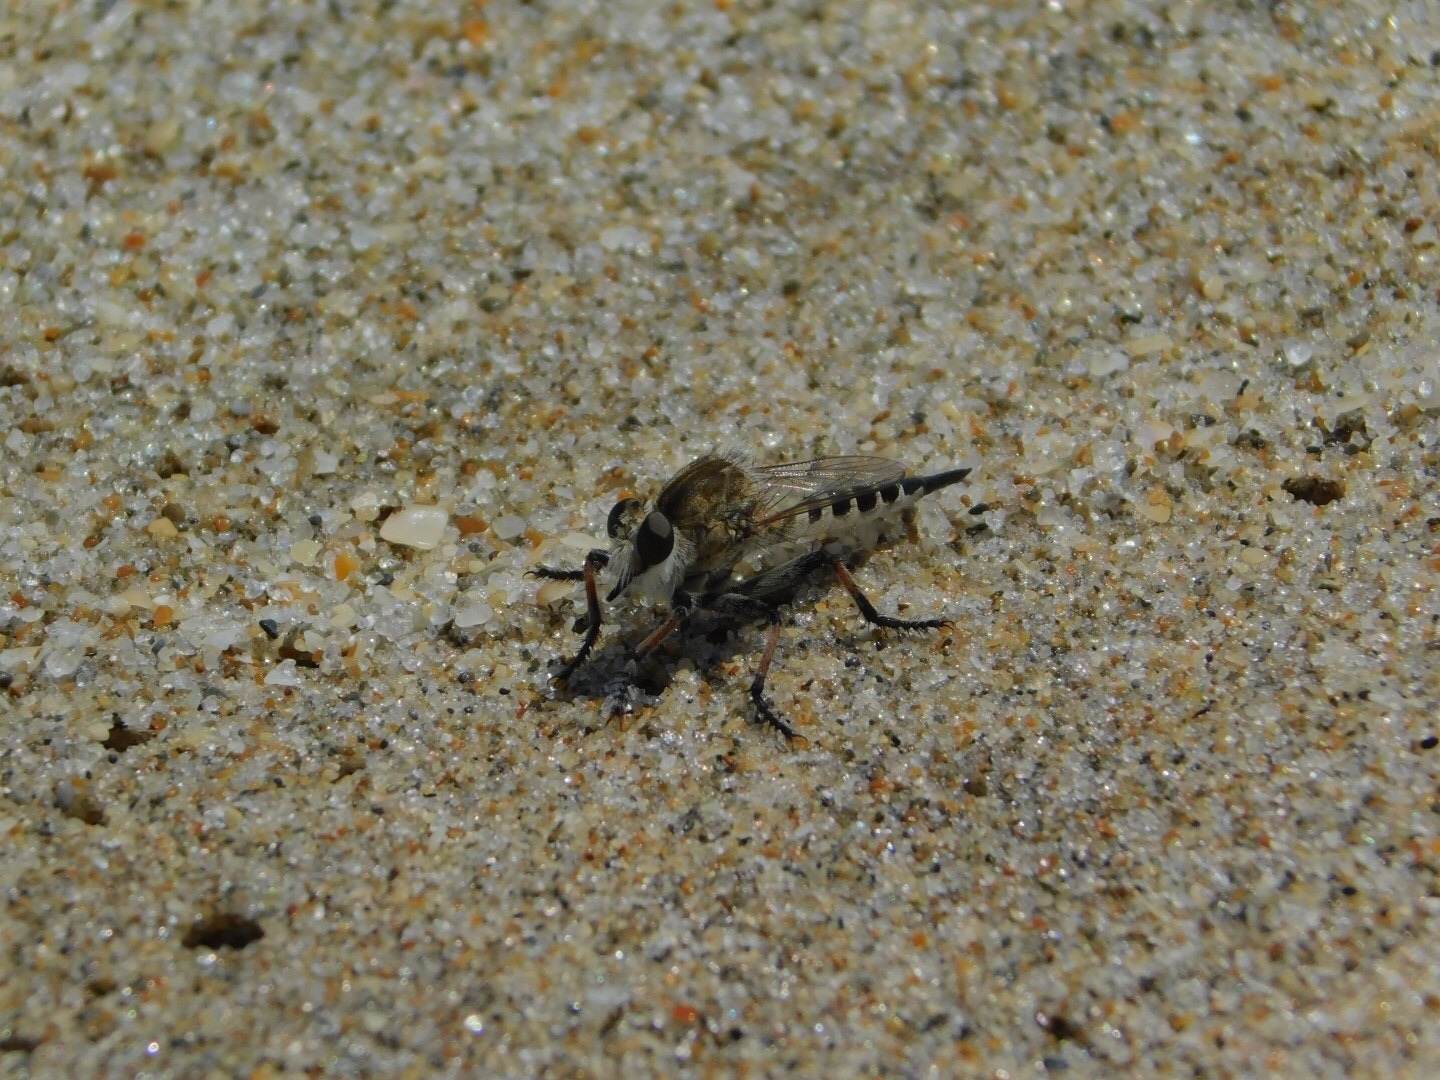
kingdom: Animalia
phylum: Arthropoda
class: Insecta
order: Diptera
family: Asilidae
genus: Efferia
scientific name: Efferia albibarbis
